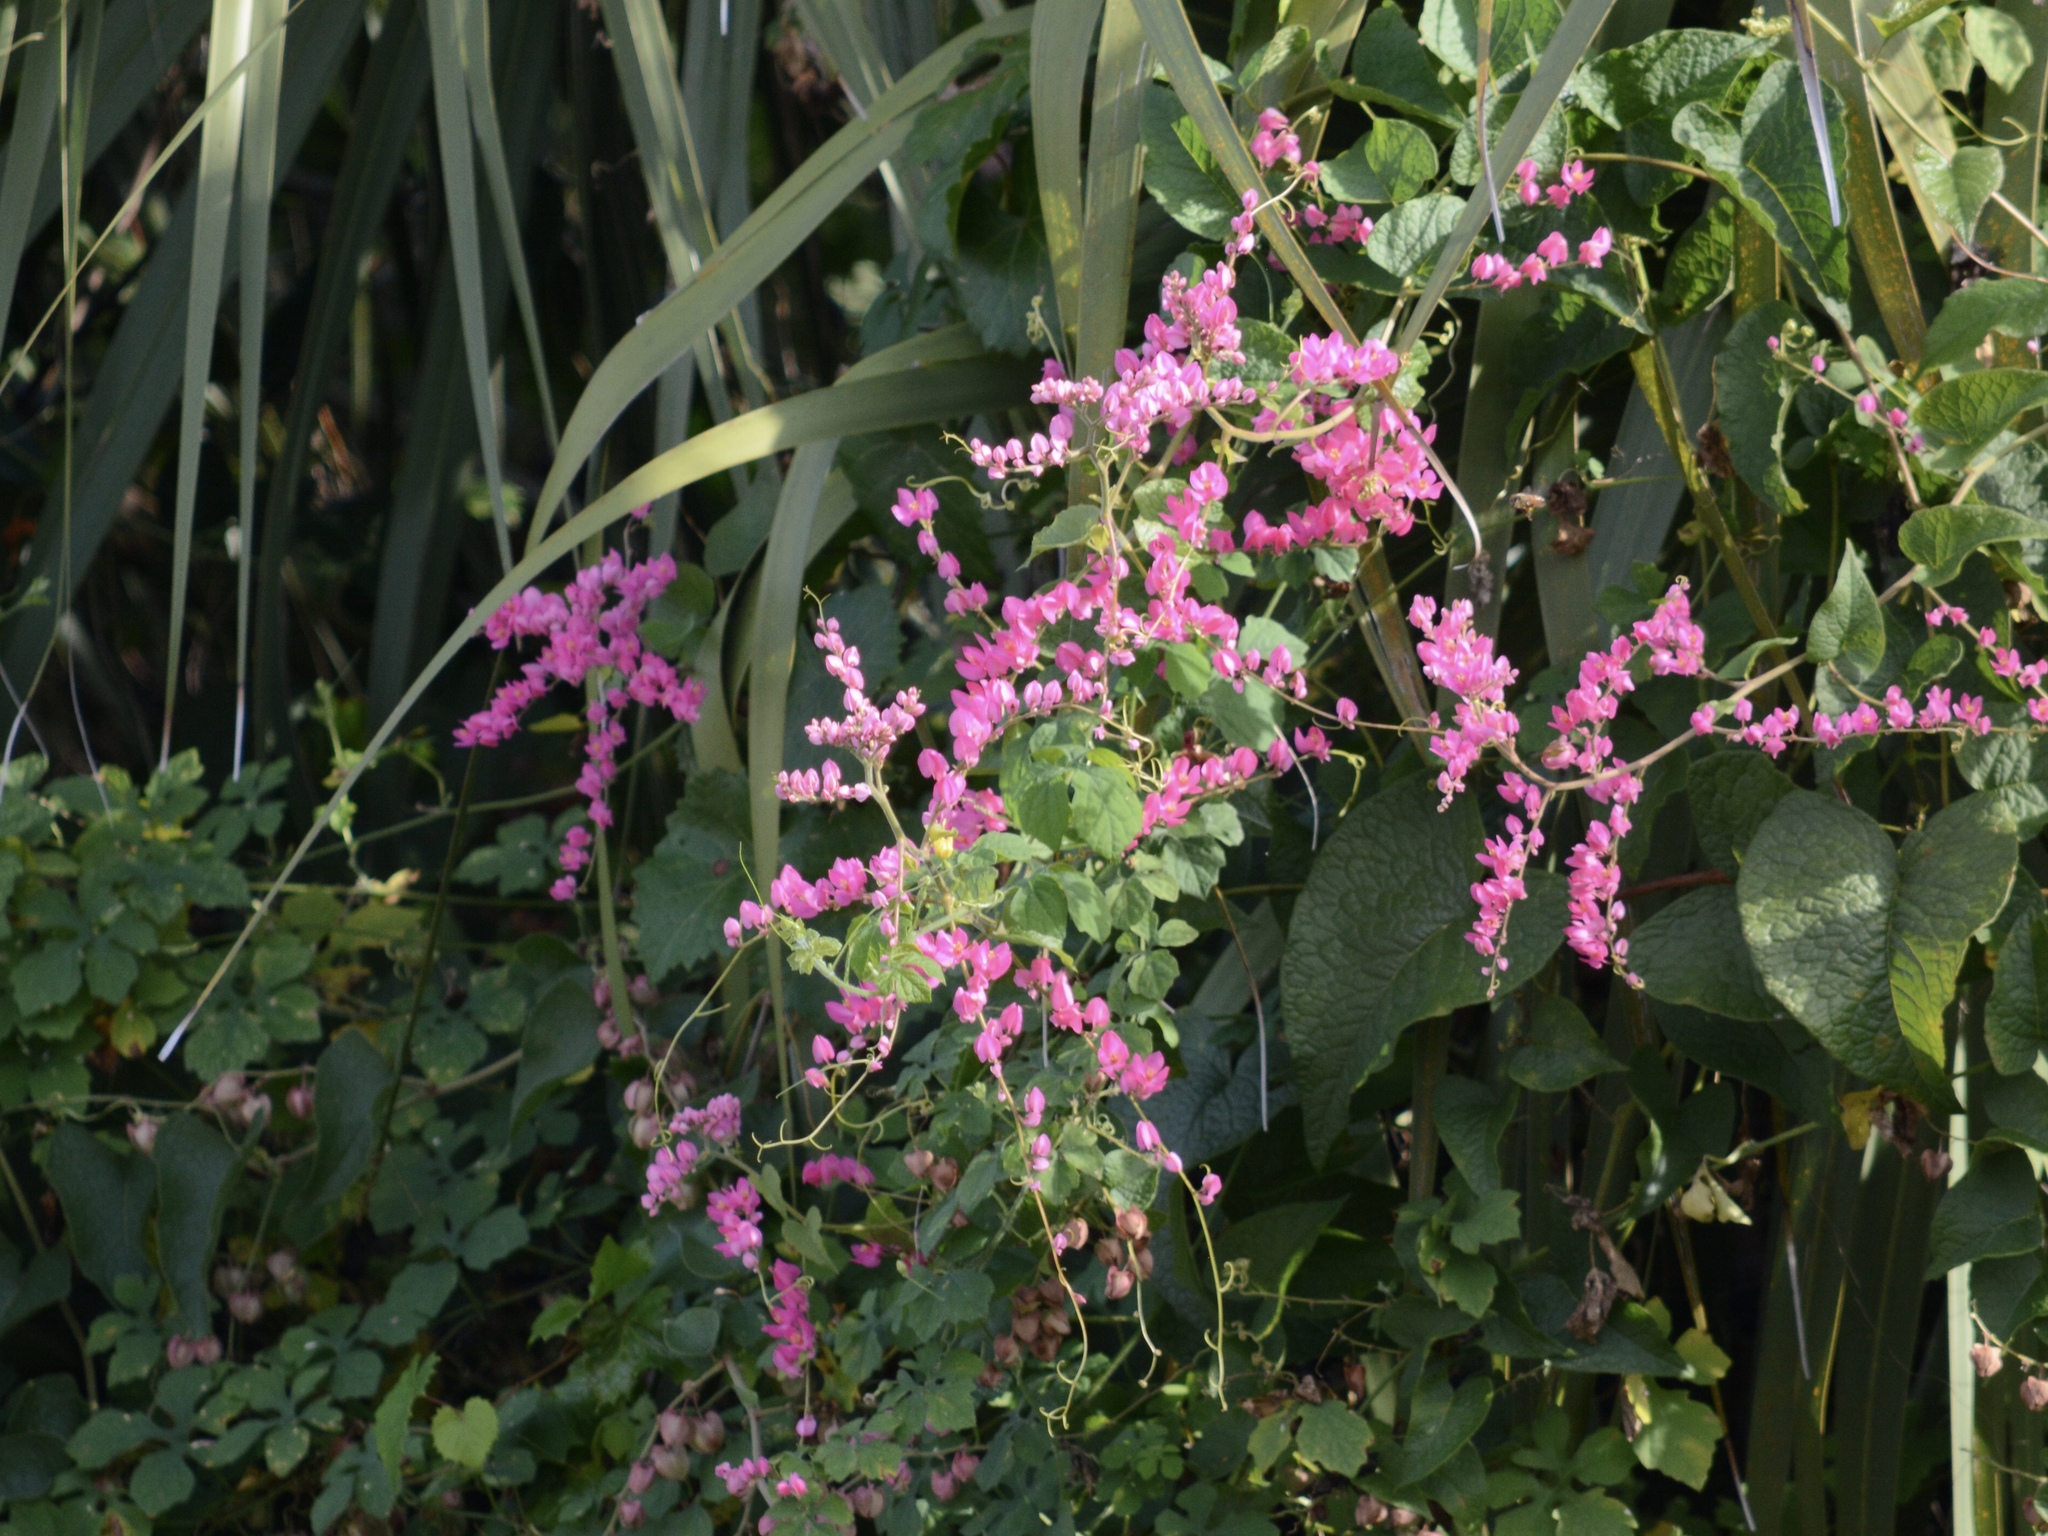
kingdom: Plantae
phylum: Tracheophyta
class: Magnoliopsida
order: Caryophyllales
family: Polygonaceae
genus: Antigonon
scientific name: Antigonon leptopus
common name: Coral vine
